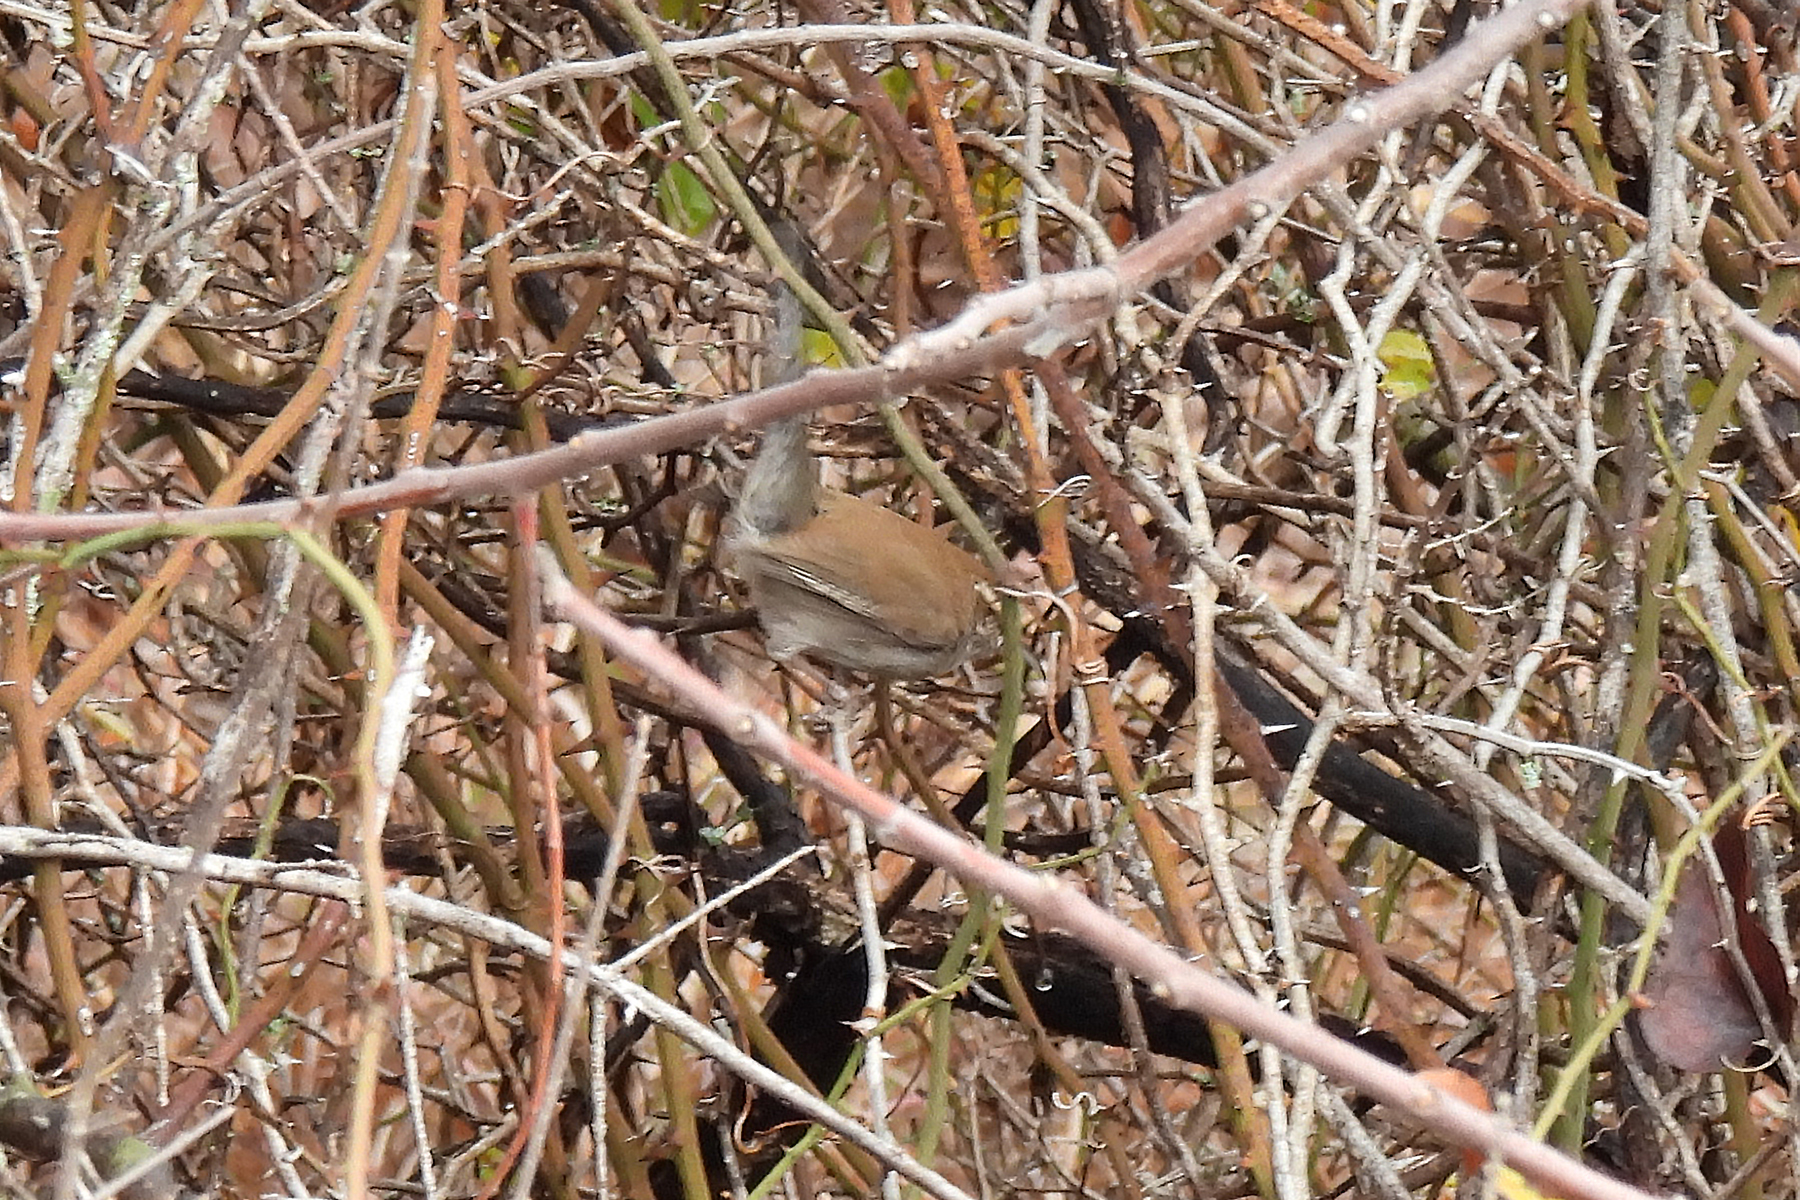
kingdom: Animalia
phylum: Chordata
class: Aves
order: Passeriformes
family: Troglodytidae
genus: Thryomanes
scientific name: Thryomanes bewickii
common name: Bewick's wren
